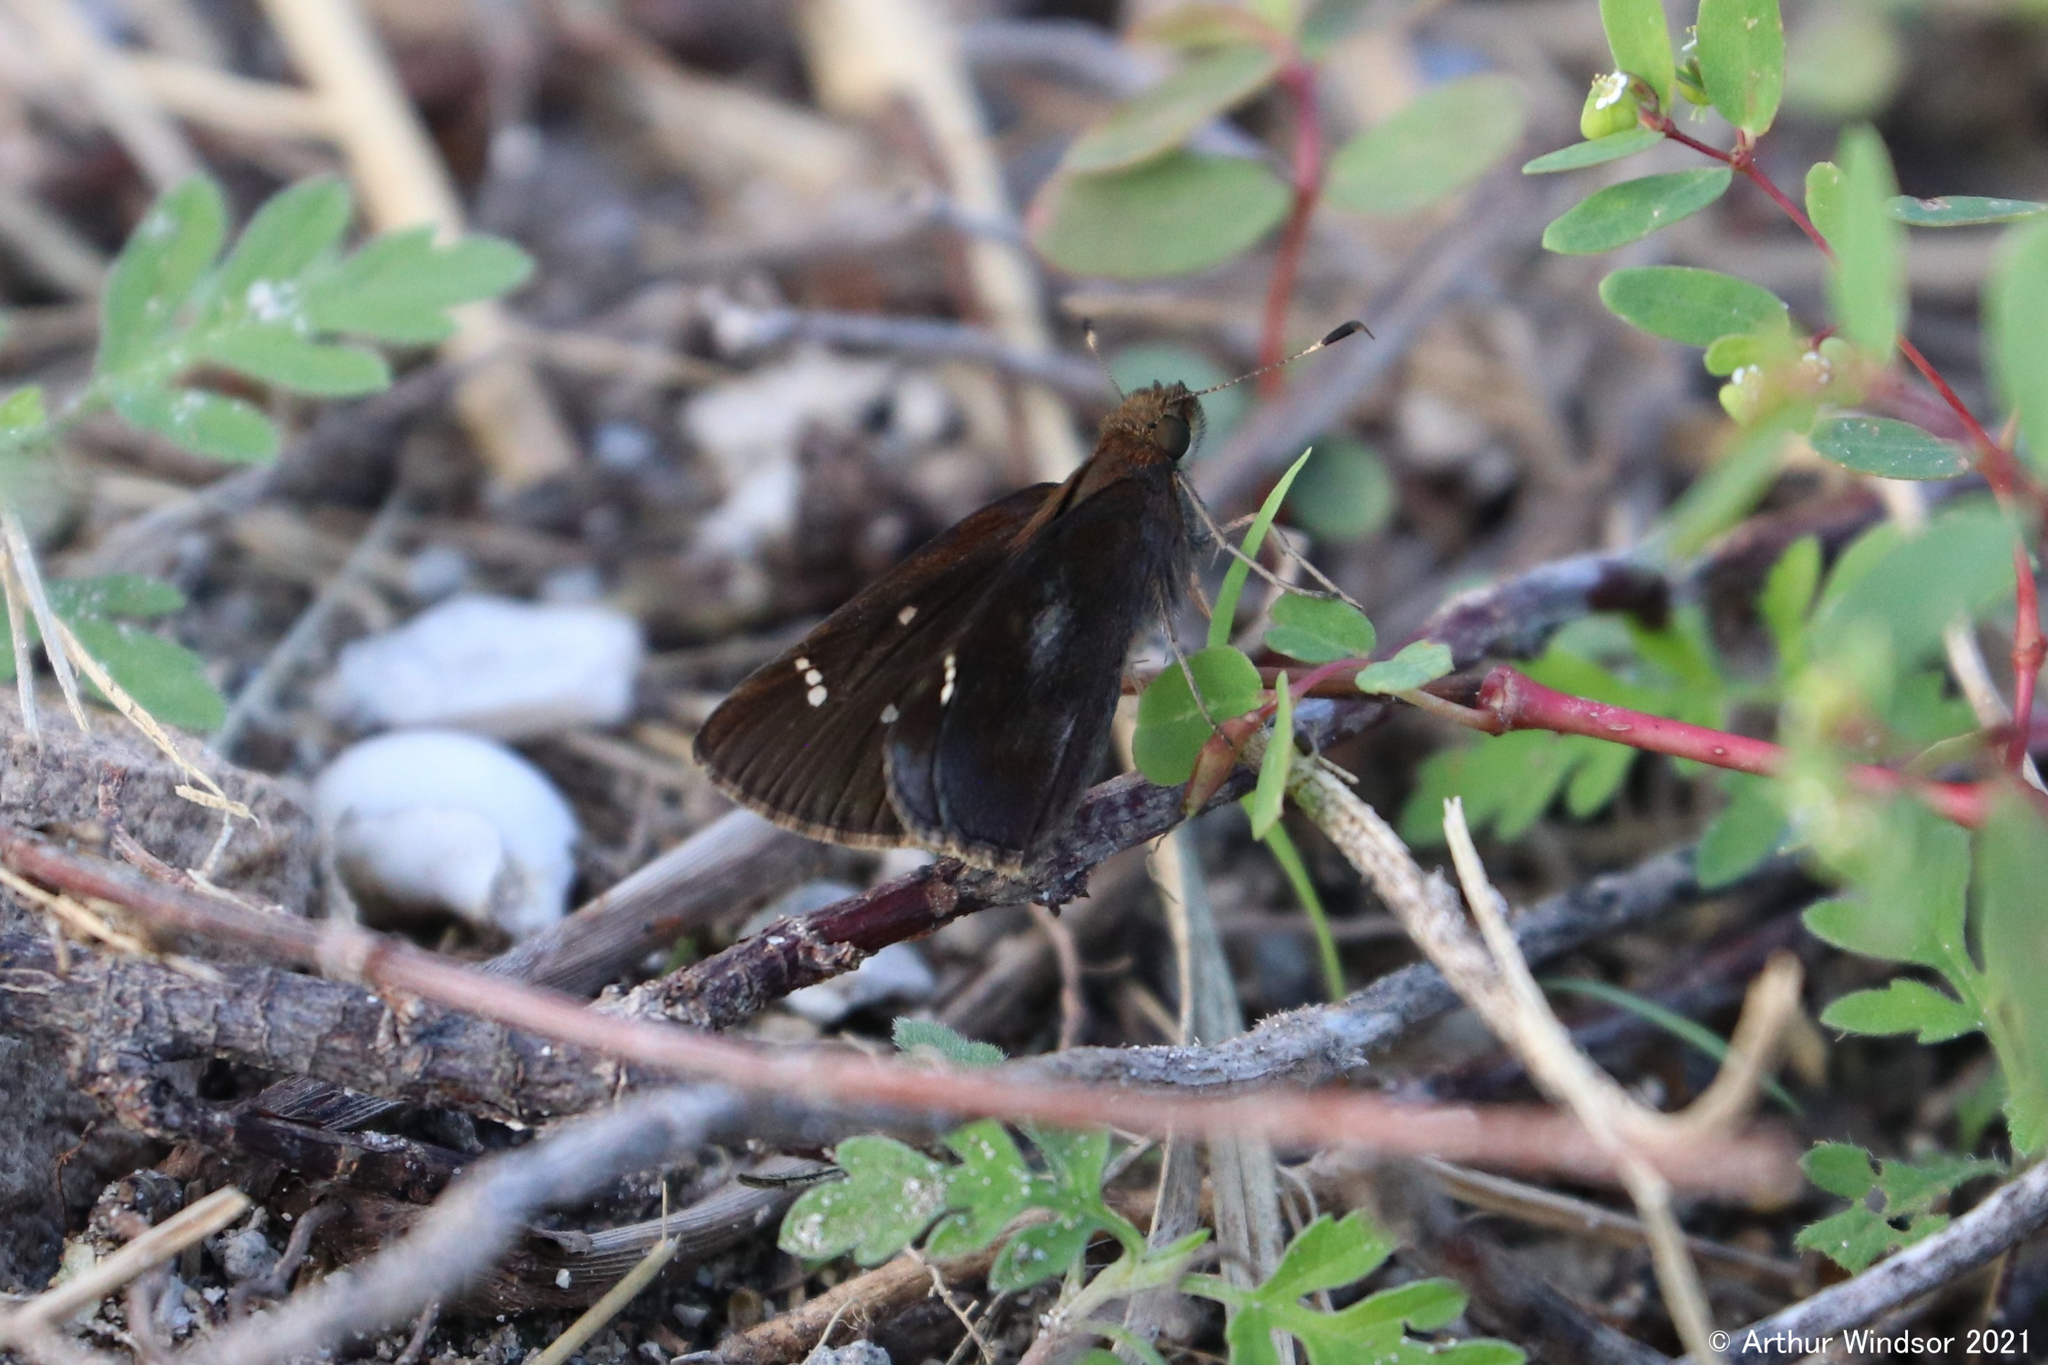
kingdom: Animalia
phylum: Arthropoda
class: Insecta
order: Lepidoptera
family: Hesperiidae
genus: Lerema
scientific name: Lerema accius
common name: Clouded skipper
